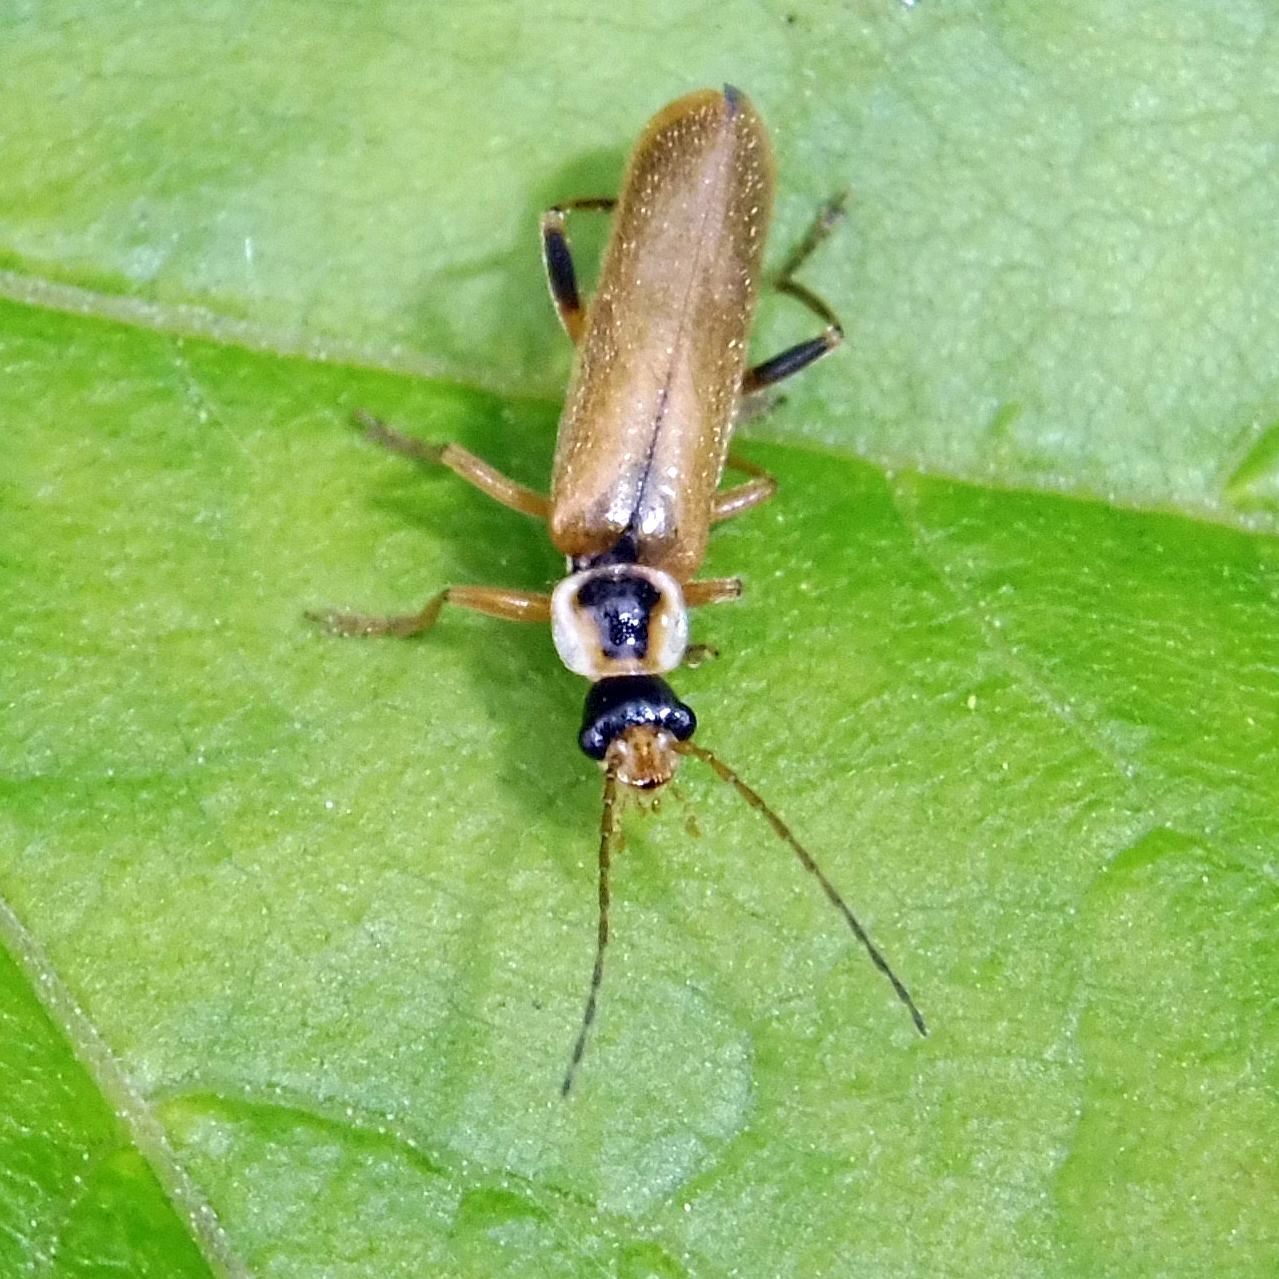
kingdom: Animalia
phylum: Arthropoda
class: Insecta
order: Coleoptera
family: Cantharidae
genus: Cantharis
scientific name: Cantharis decipiens
